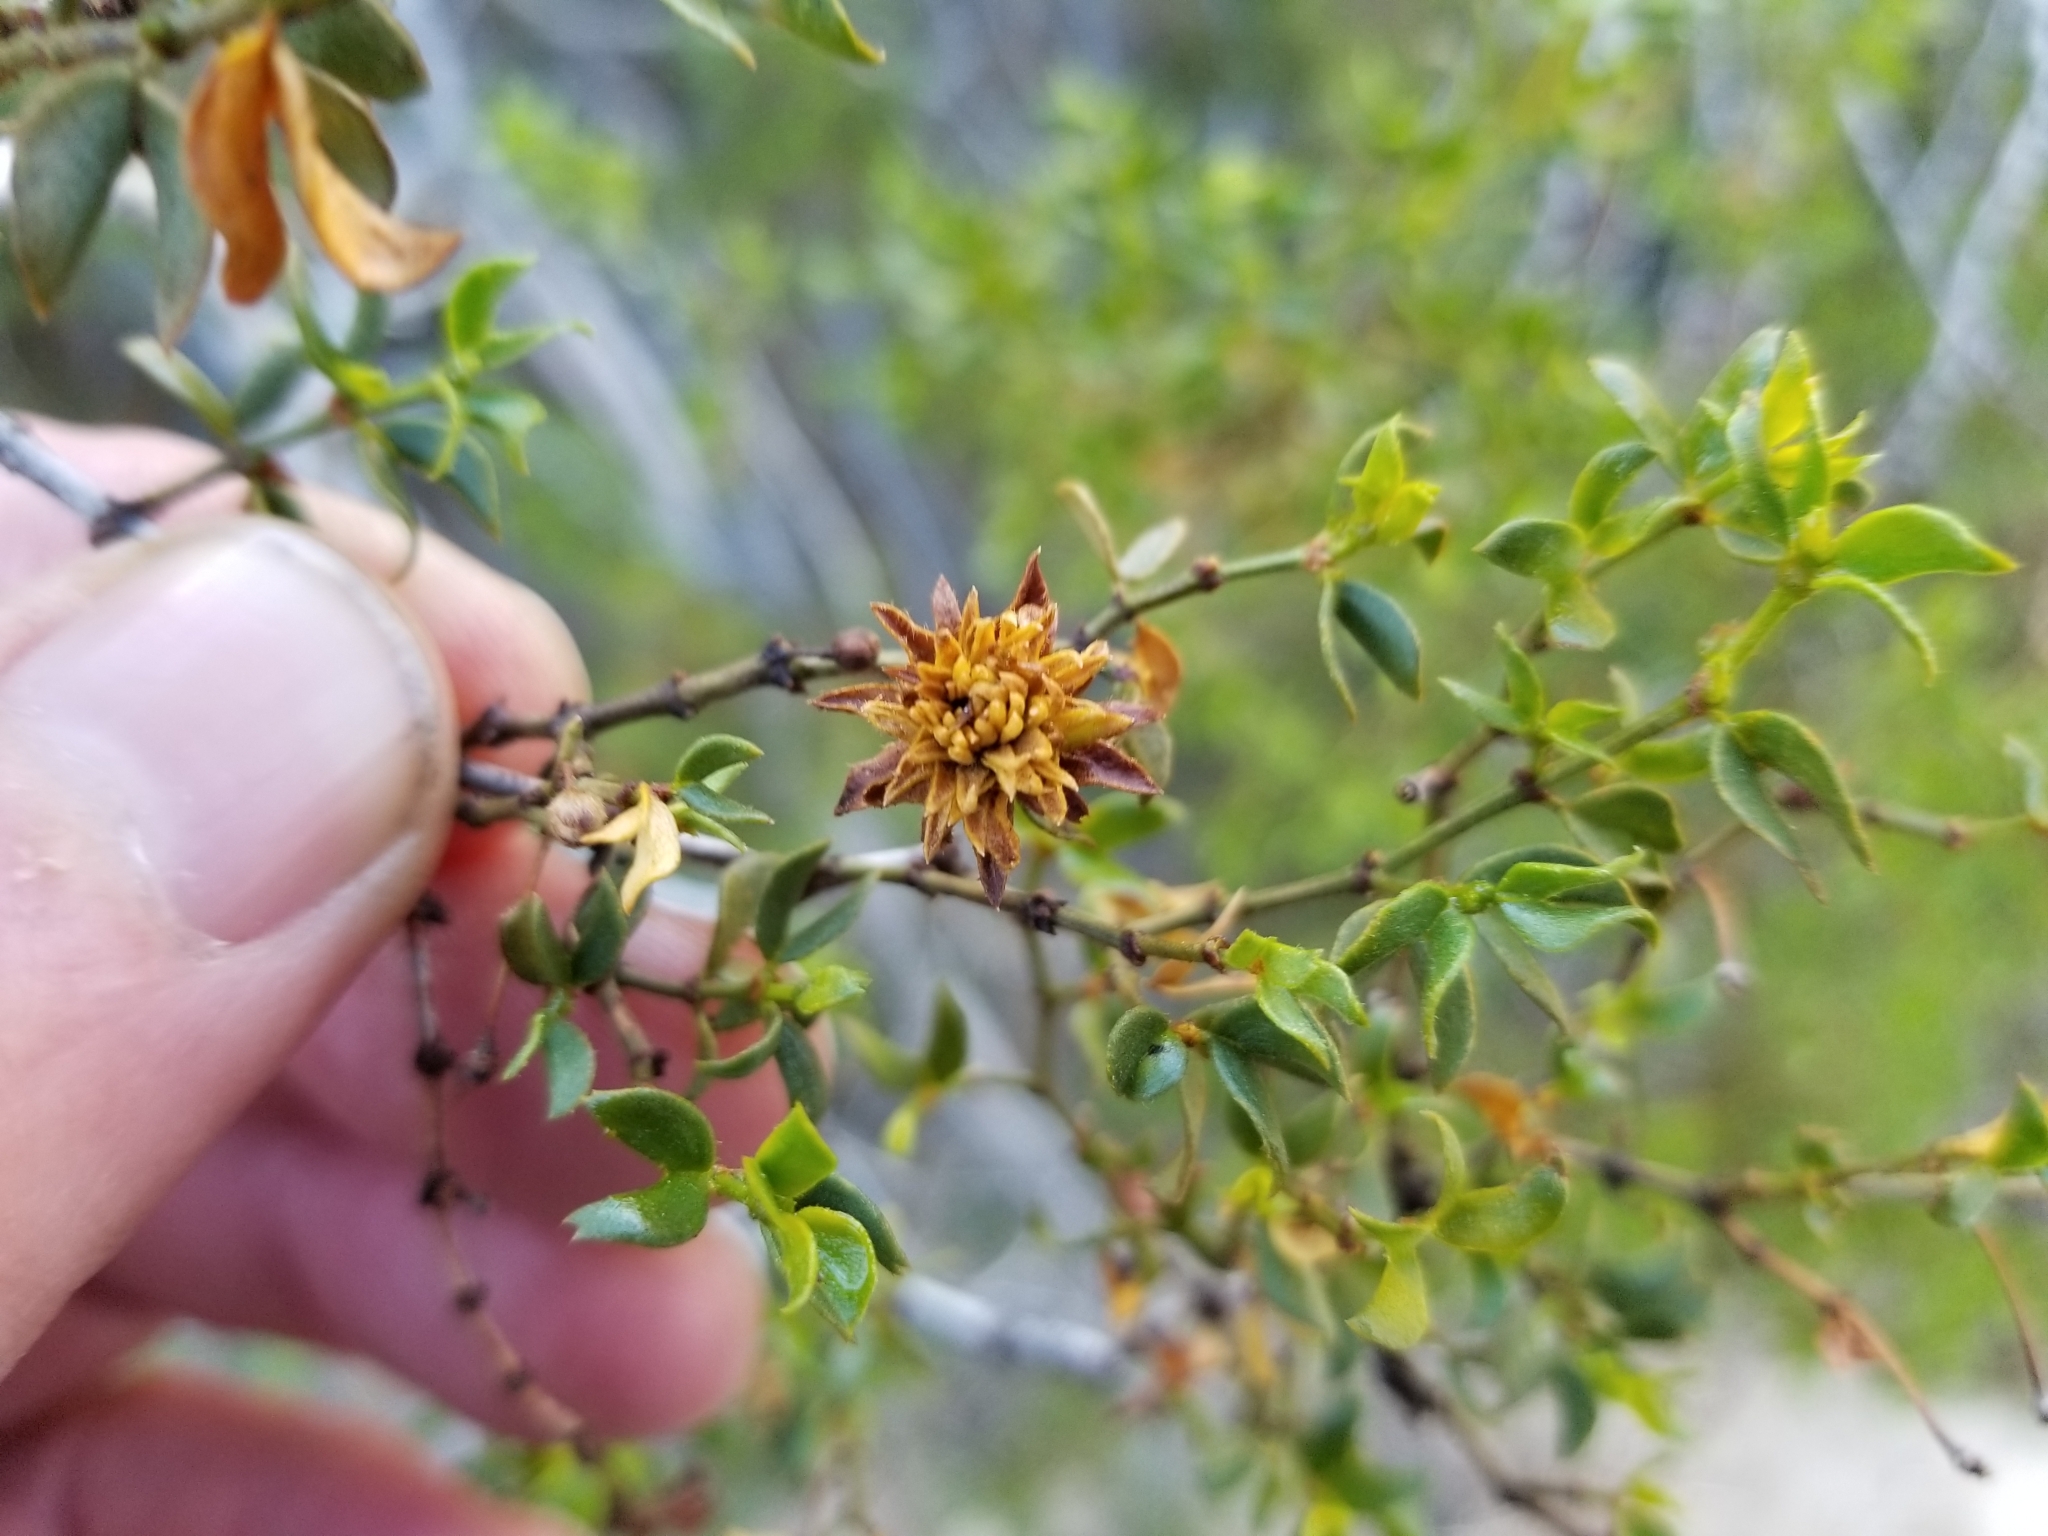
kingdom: Animalia
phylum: Arthropoda
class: Insecta
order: Diptera
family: Cecidomyiidae
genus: Asphondylia
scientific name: Asphondylia foliosa
